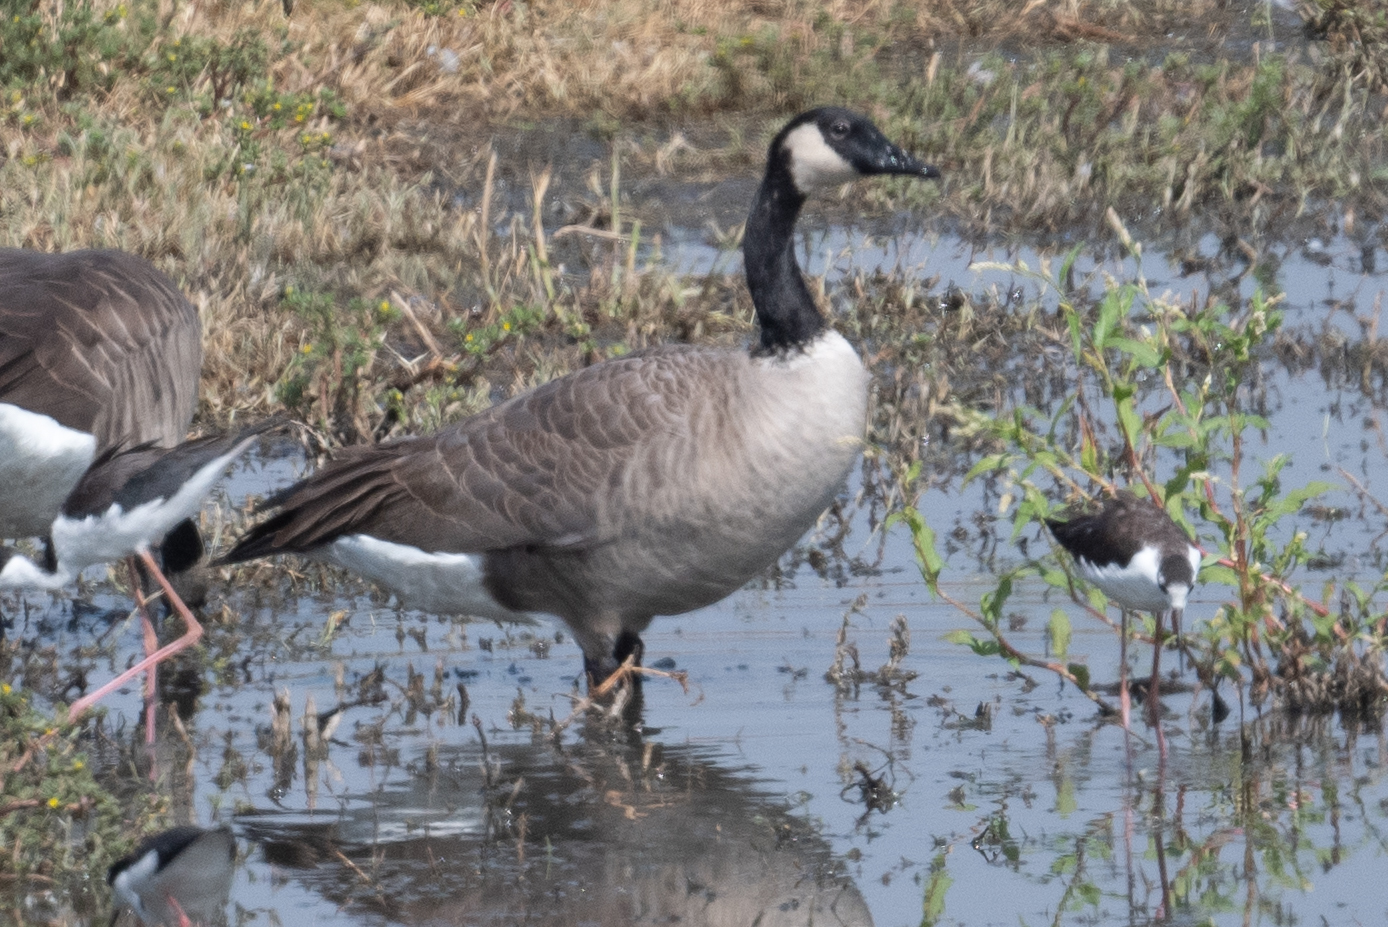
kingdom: Animalia
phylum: Chordata
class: Aves
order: Anseriformes
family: Anatidae
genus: Branta
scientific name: Branta canadensis
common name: Canada goose
